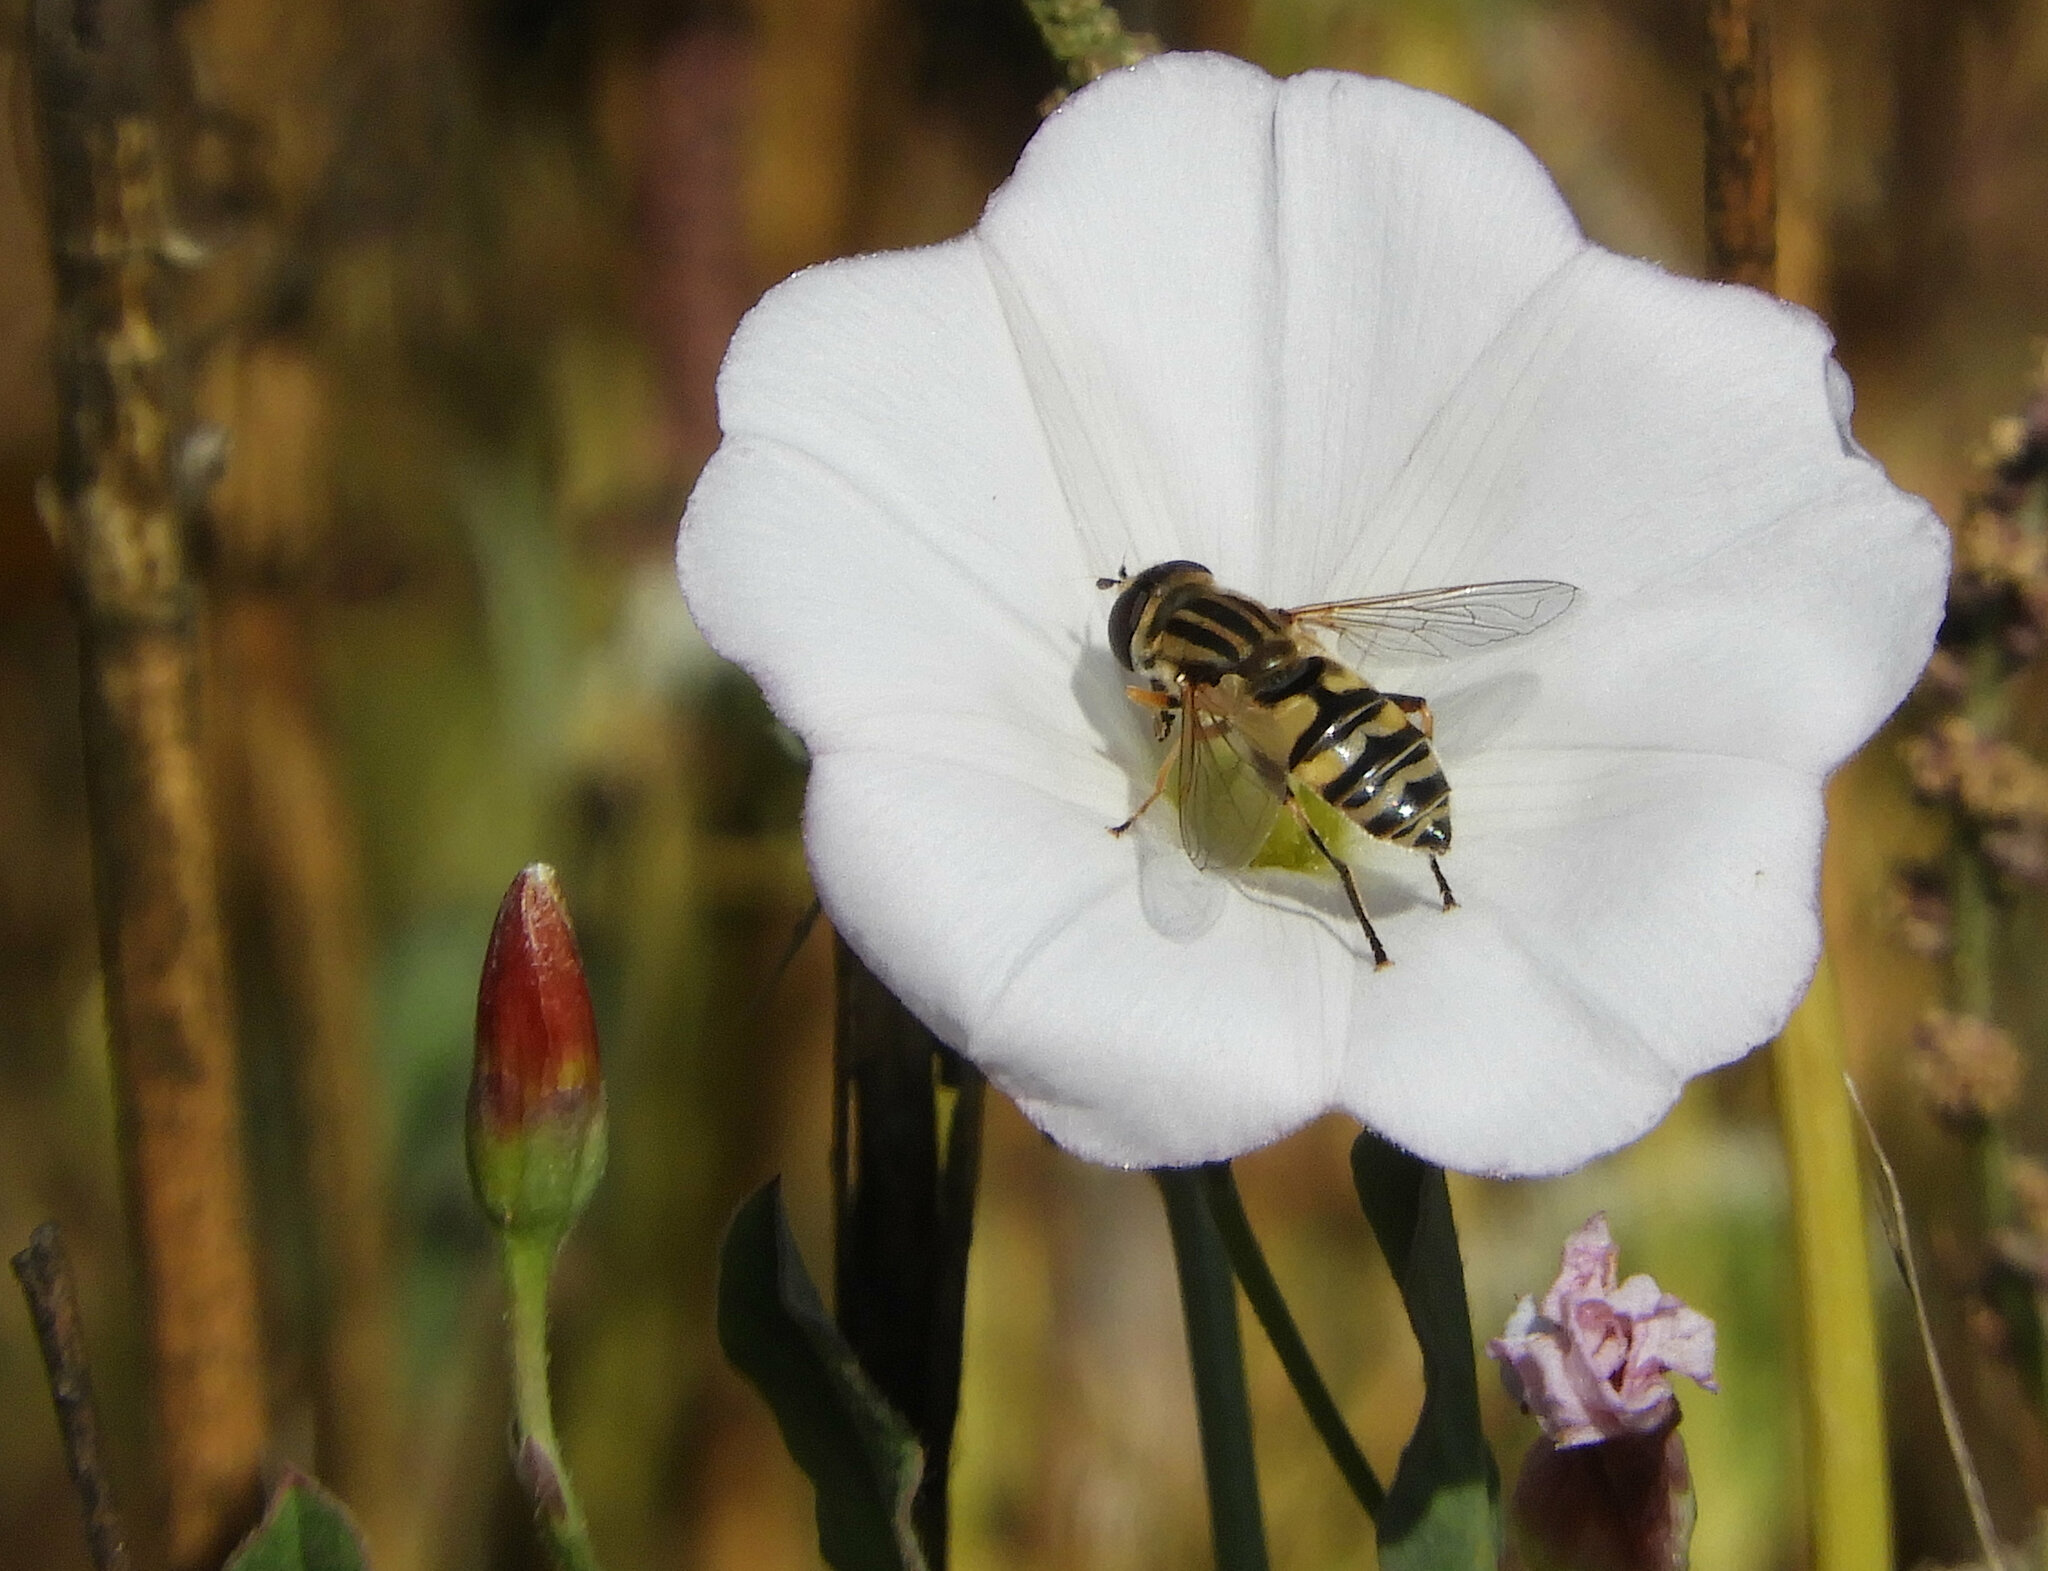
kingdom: Animalia
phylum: Arthropoda
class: Insecta
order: Diptera
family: Syrphidae
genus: Helophilus
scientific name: Helophilus latifrons
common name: Broad-headed marsh fly
